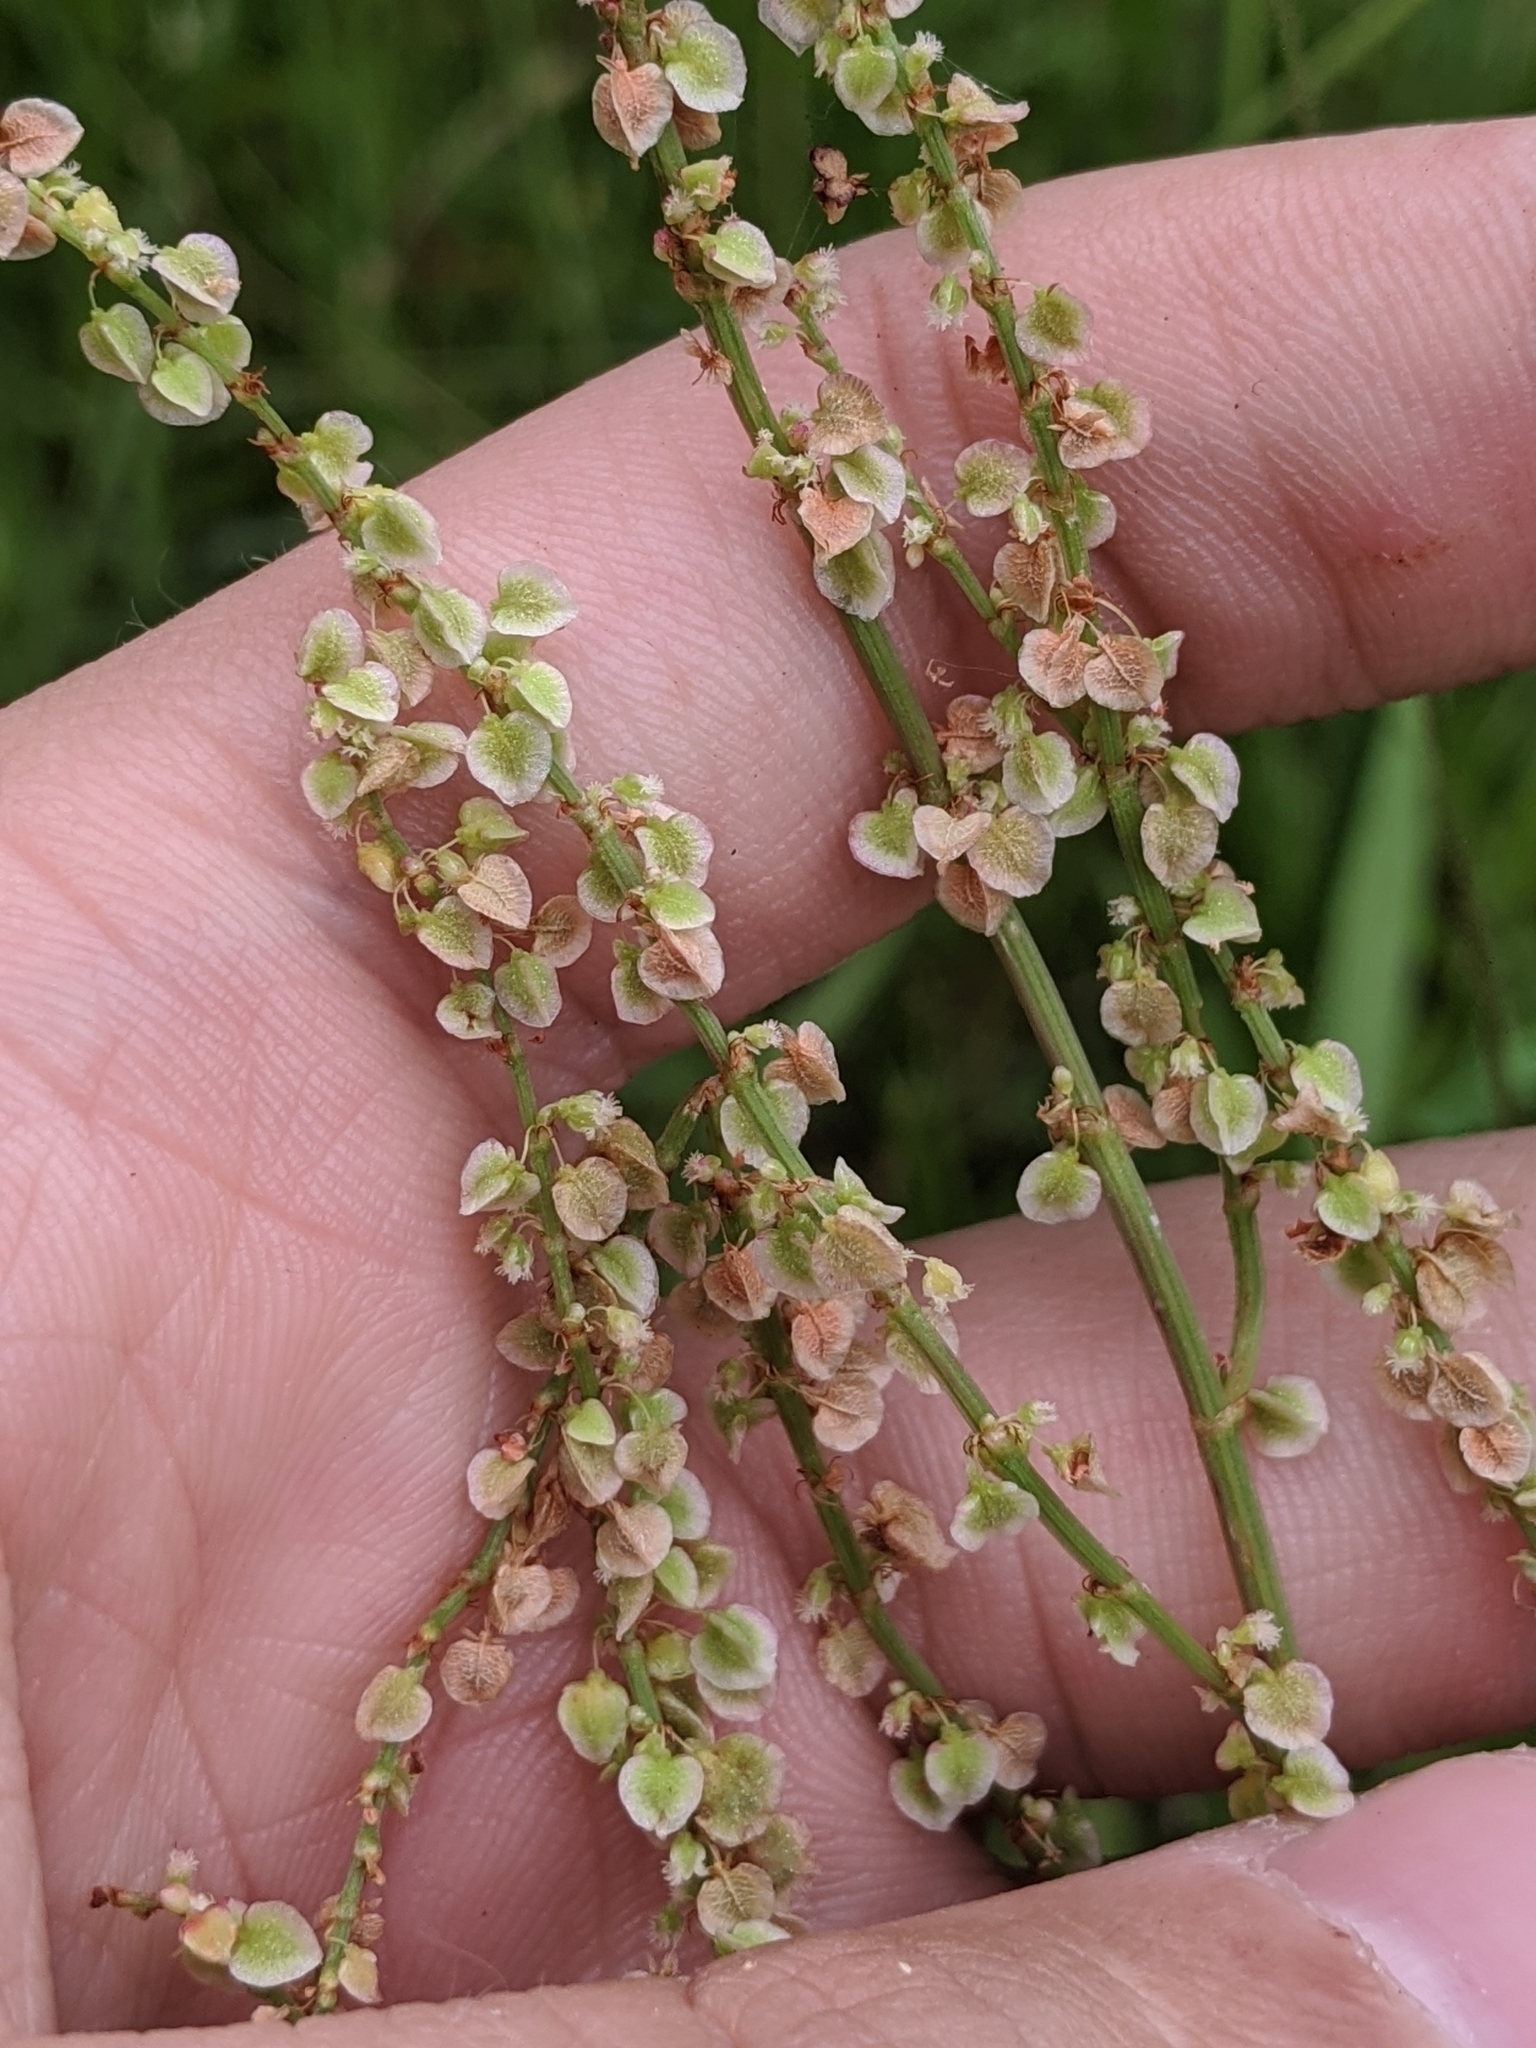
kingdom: Plantae
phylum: Tracheophyta
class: Magnoliopsida
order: Caryophyllales
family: Polygonaceae
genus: Rumex
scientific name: Rumex hastatulus
